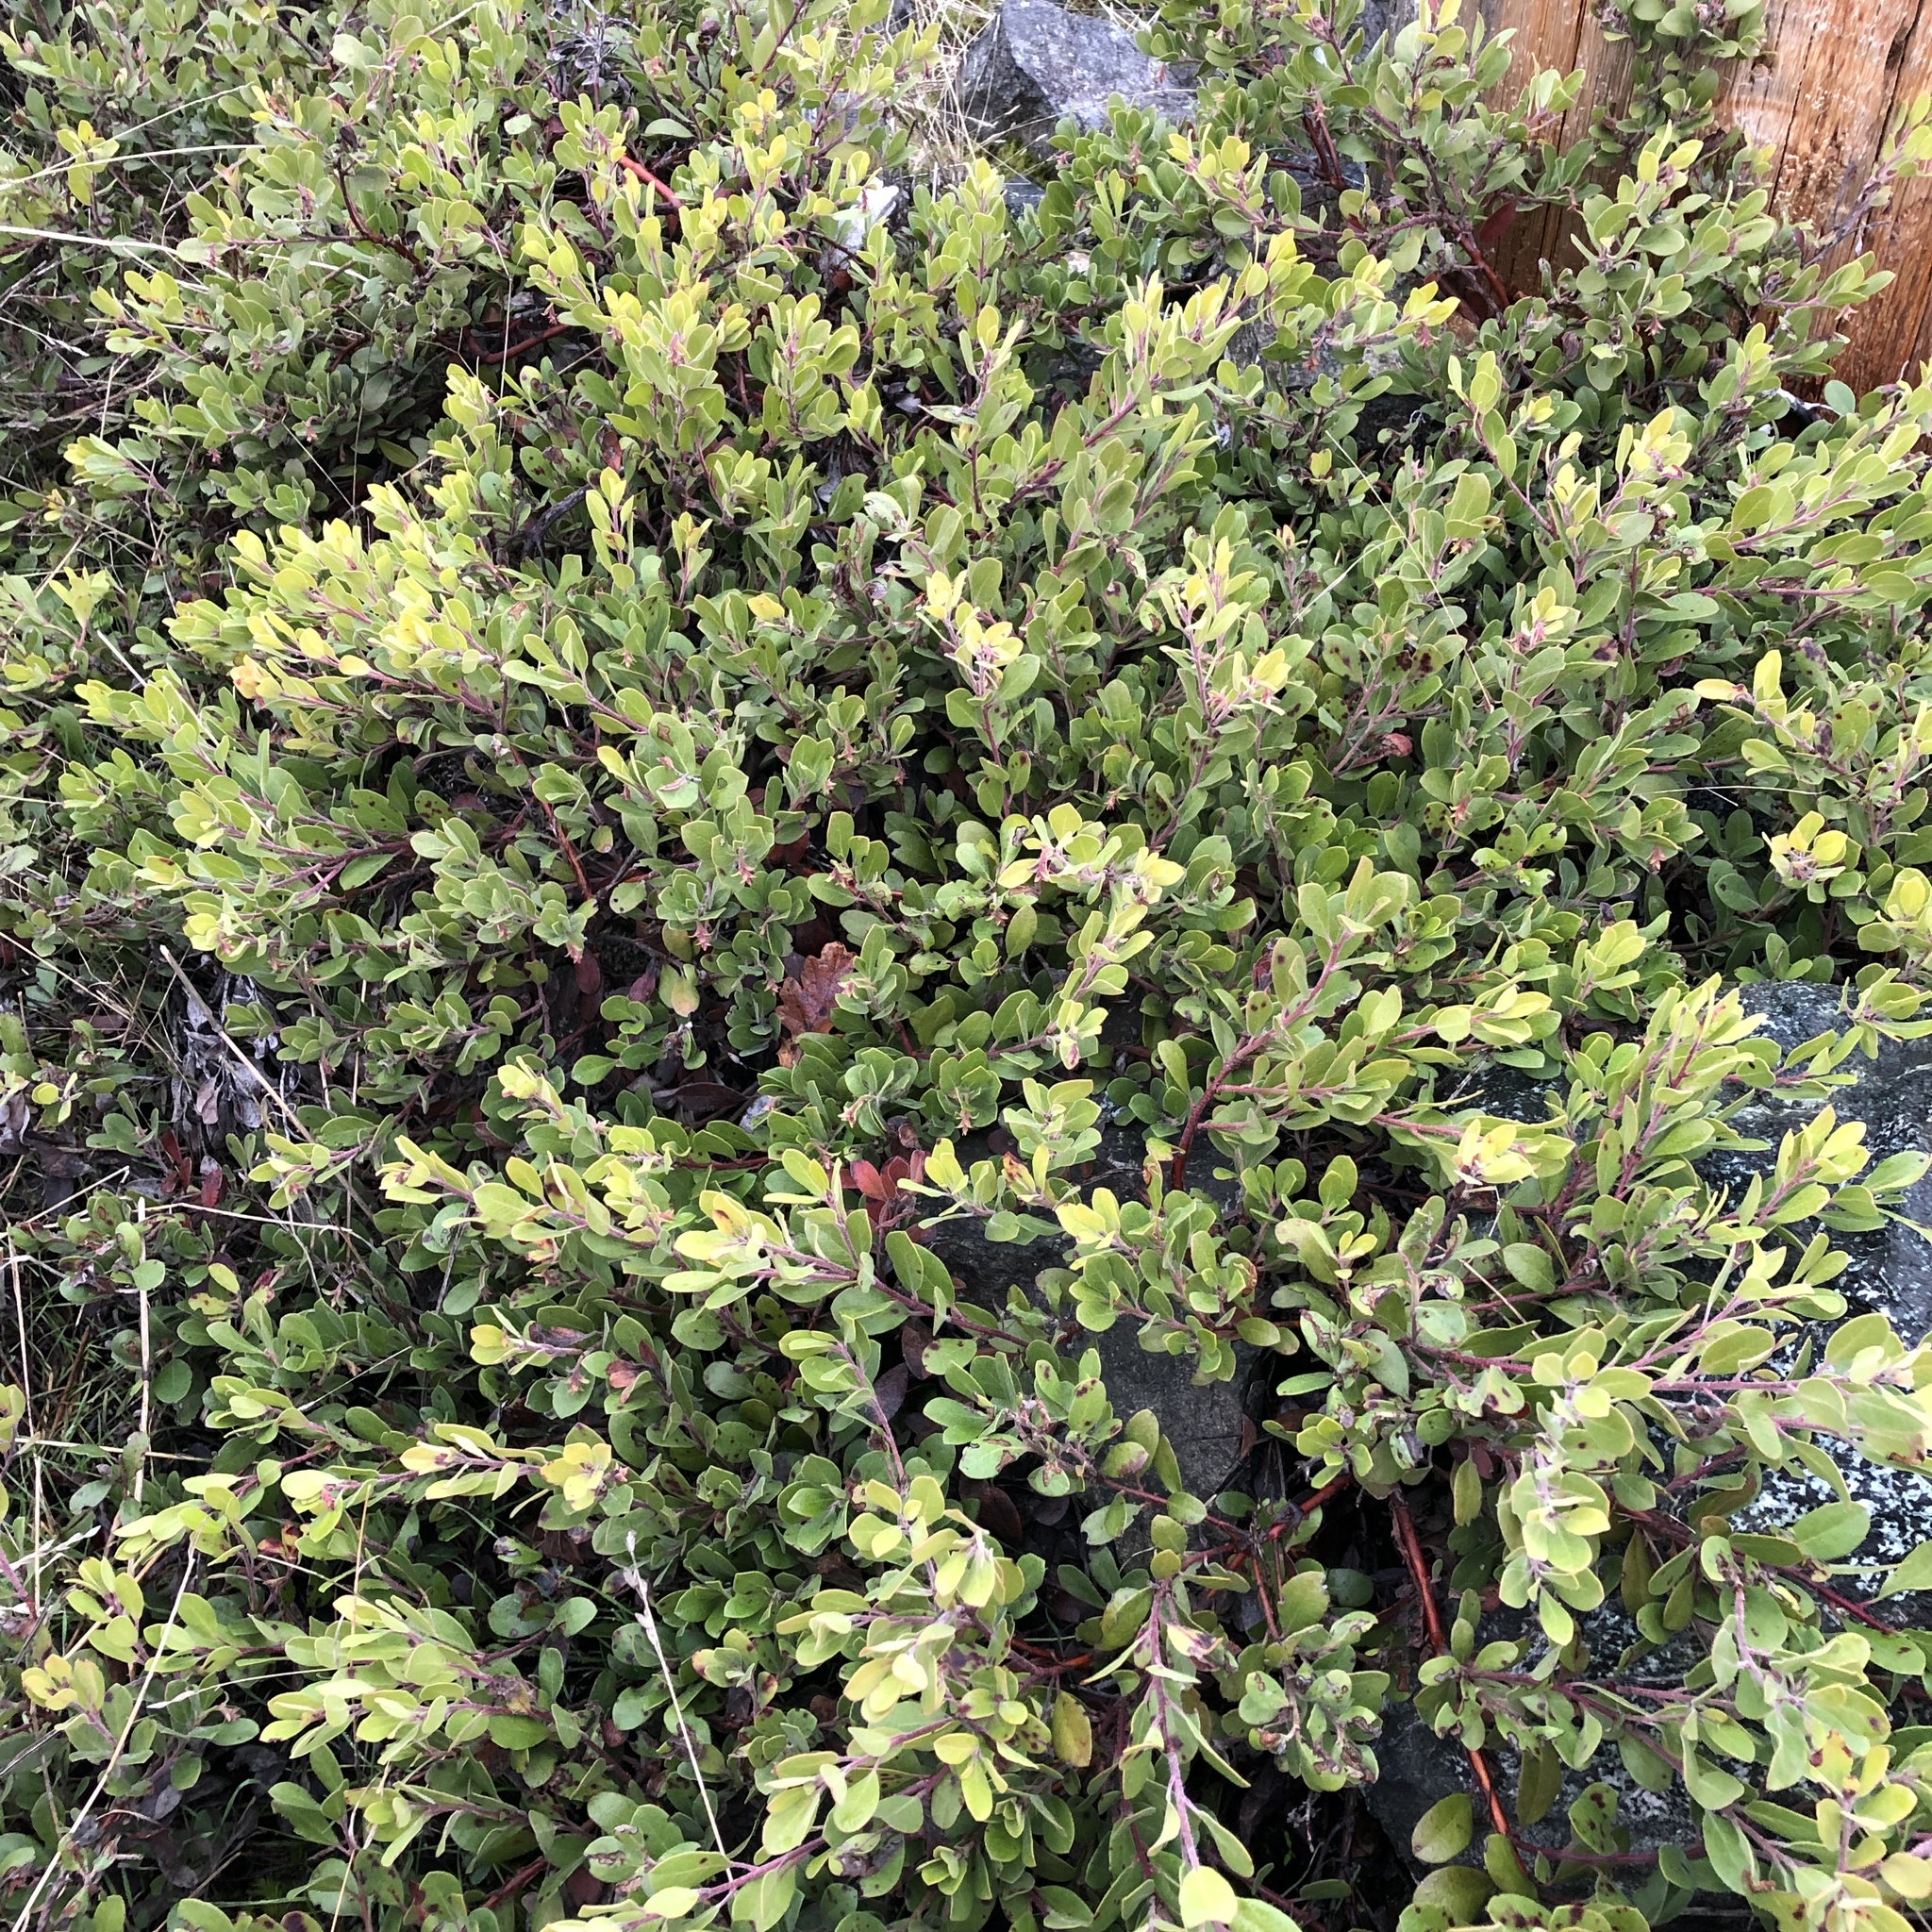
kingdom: Plantae
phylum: Tracheophyta
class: Magnoliopsida
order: Ericales
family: Ericaceae
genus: Arctostaphylos
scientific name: Arctostaphylos media
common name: Hybrid manzanita
